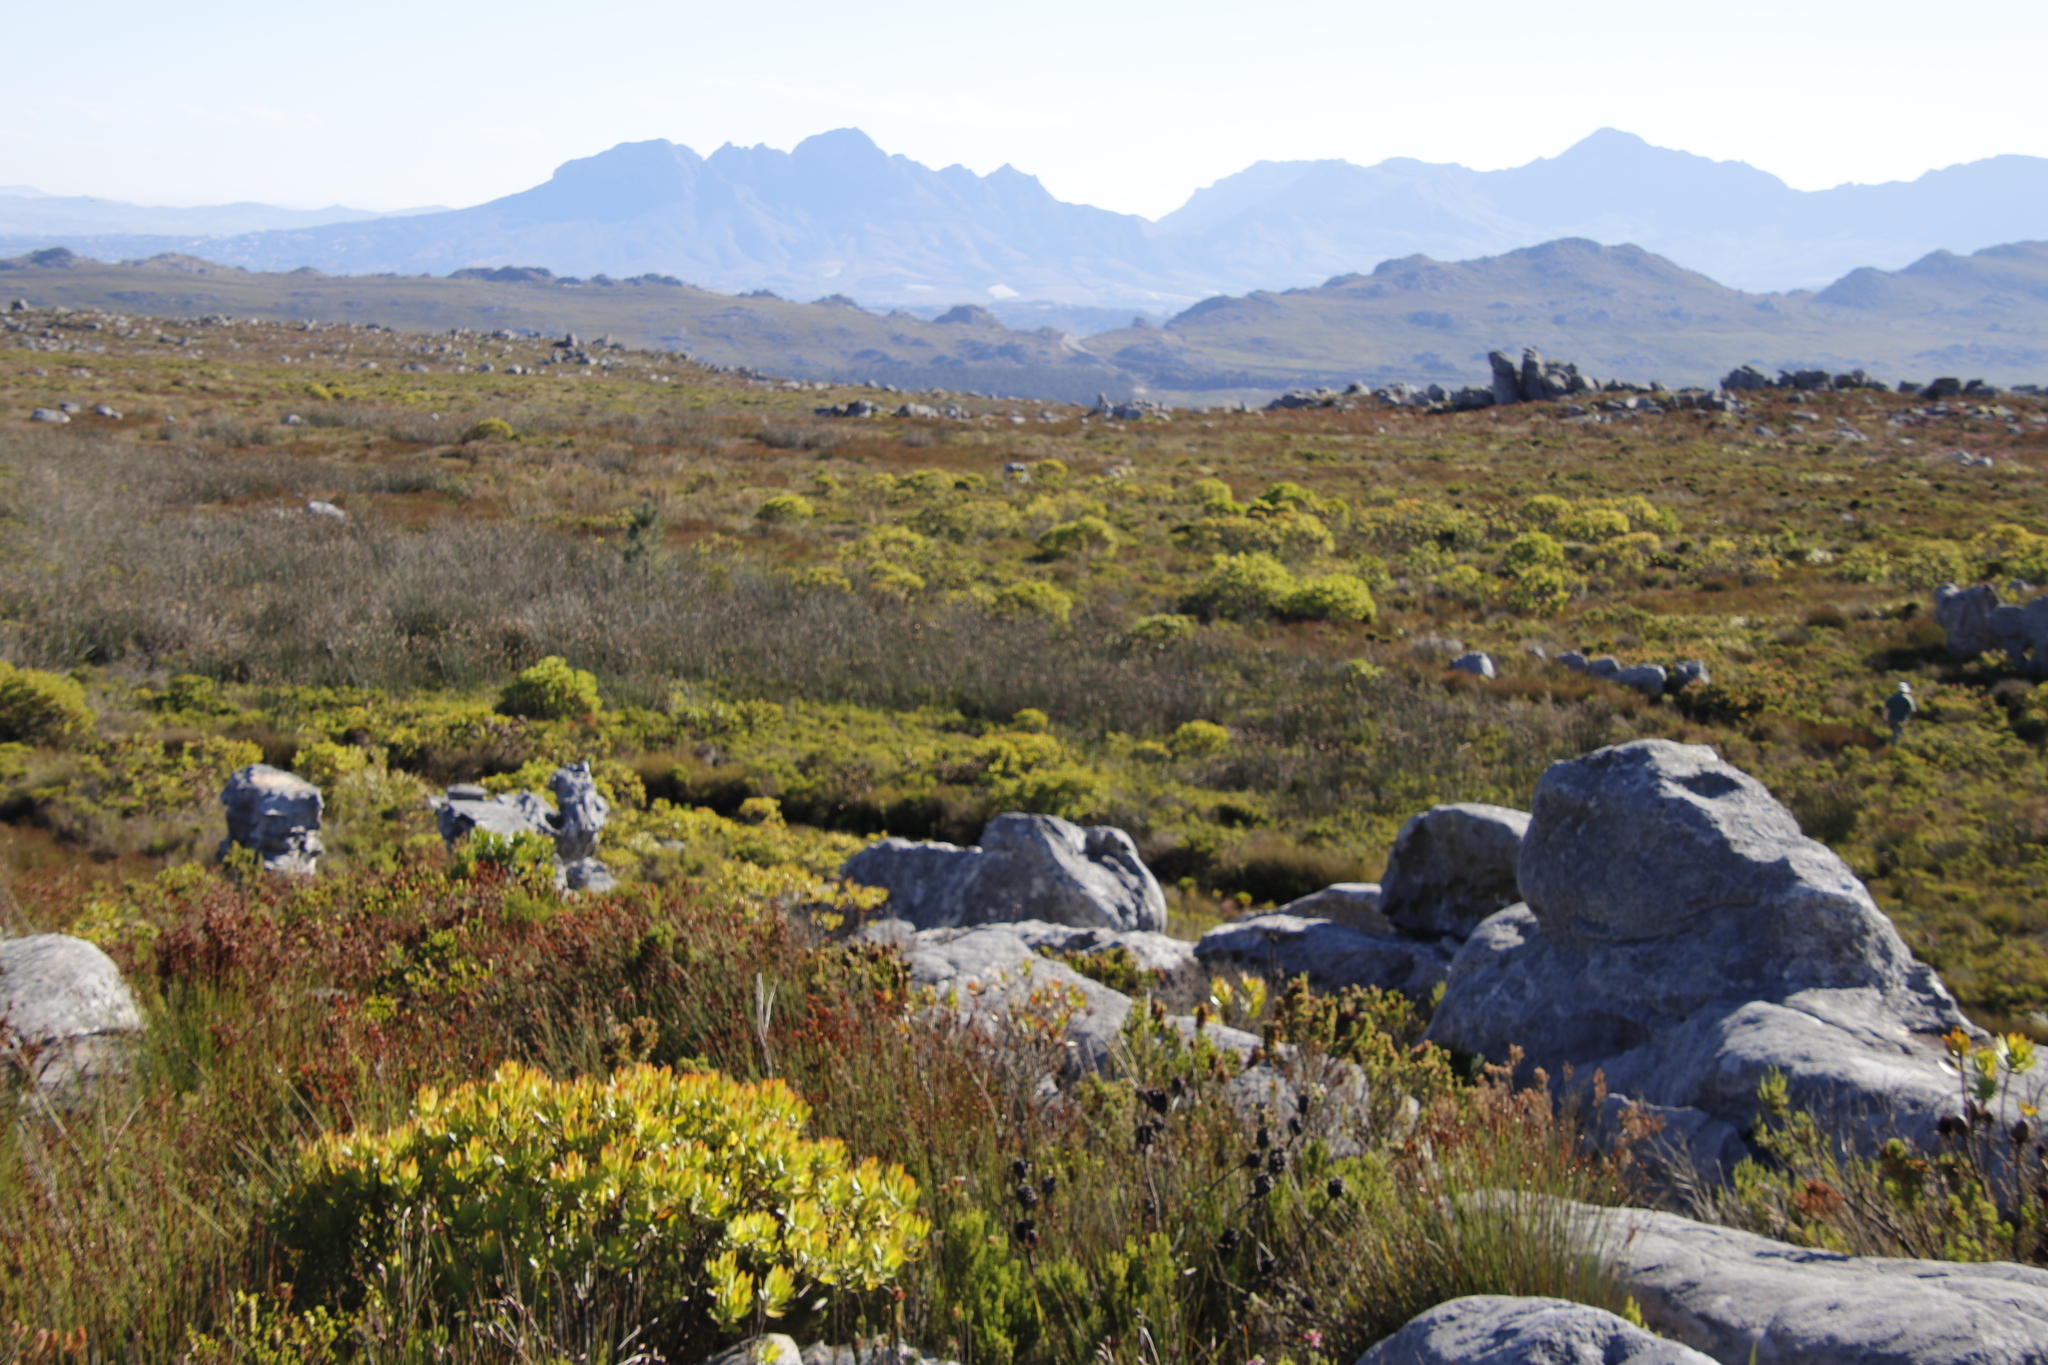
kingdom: Plantae
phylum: Tracheophyta
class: Liliopsida
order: Poales
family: Restionaceae
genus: Elegia
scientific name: Elegia mucronata
